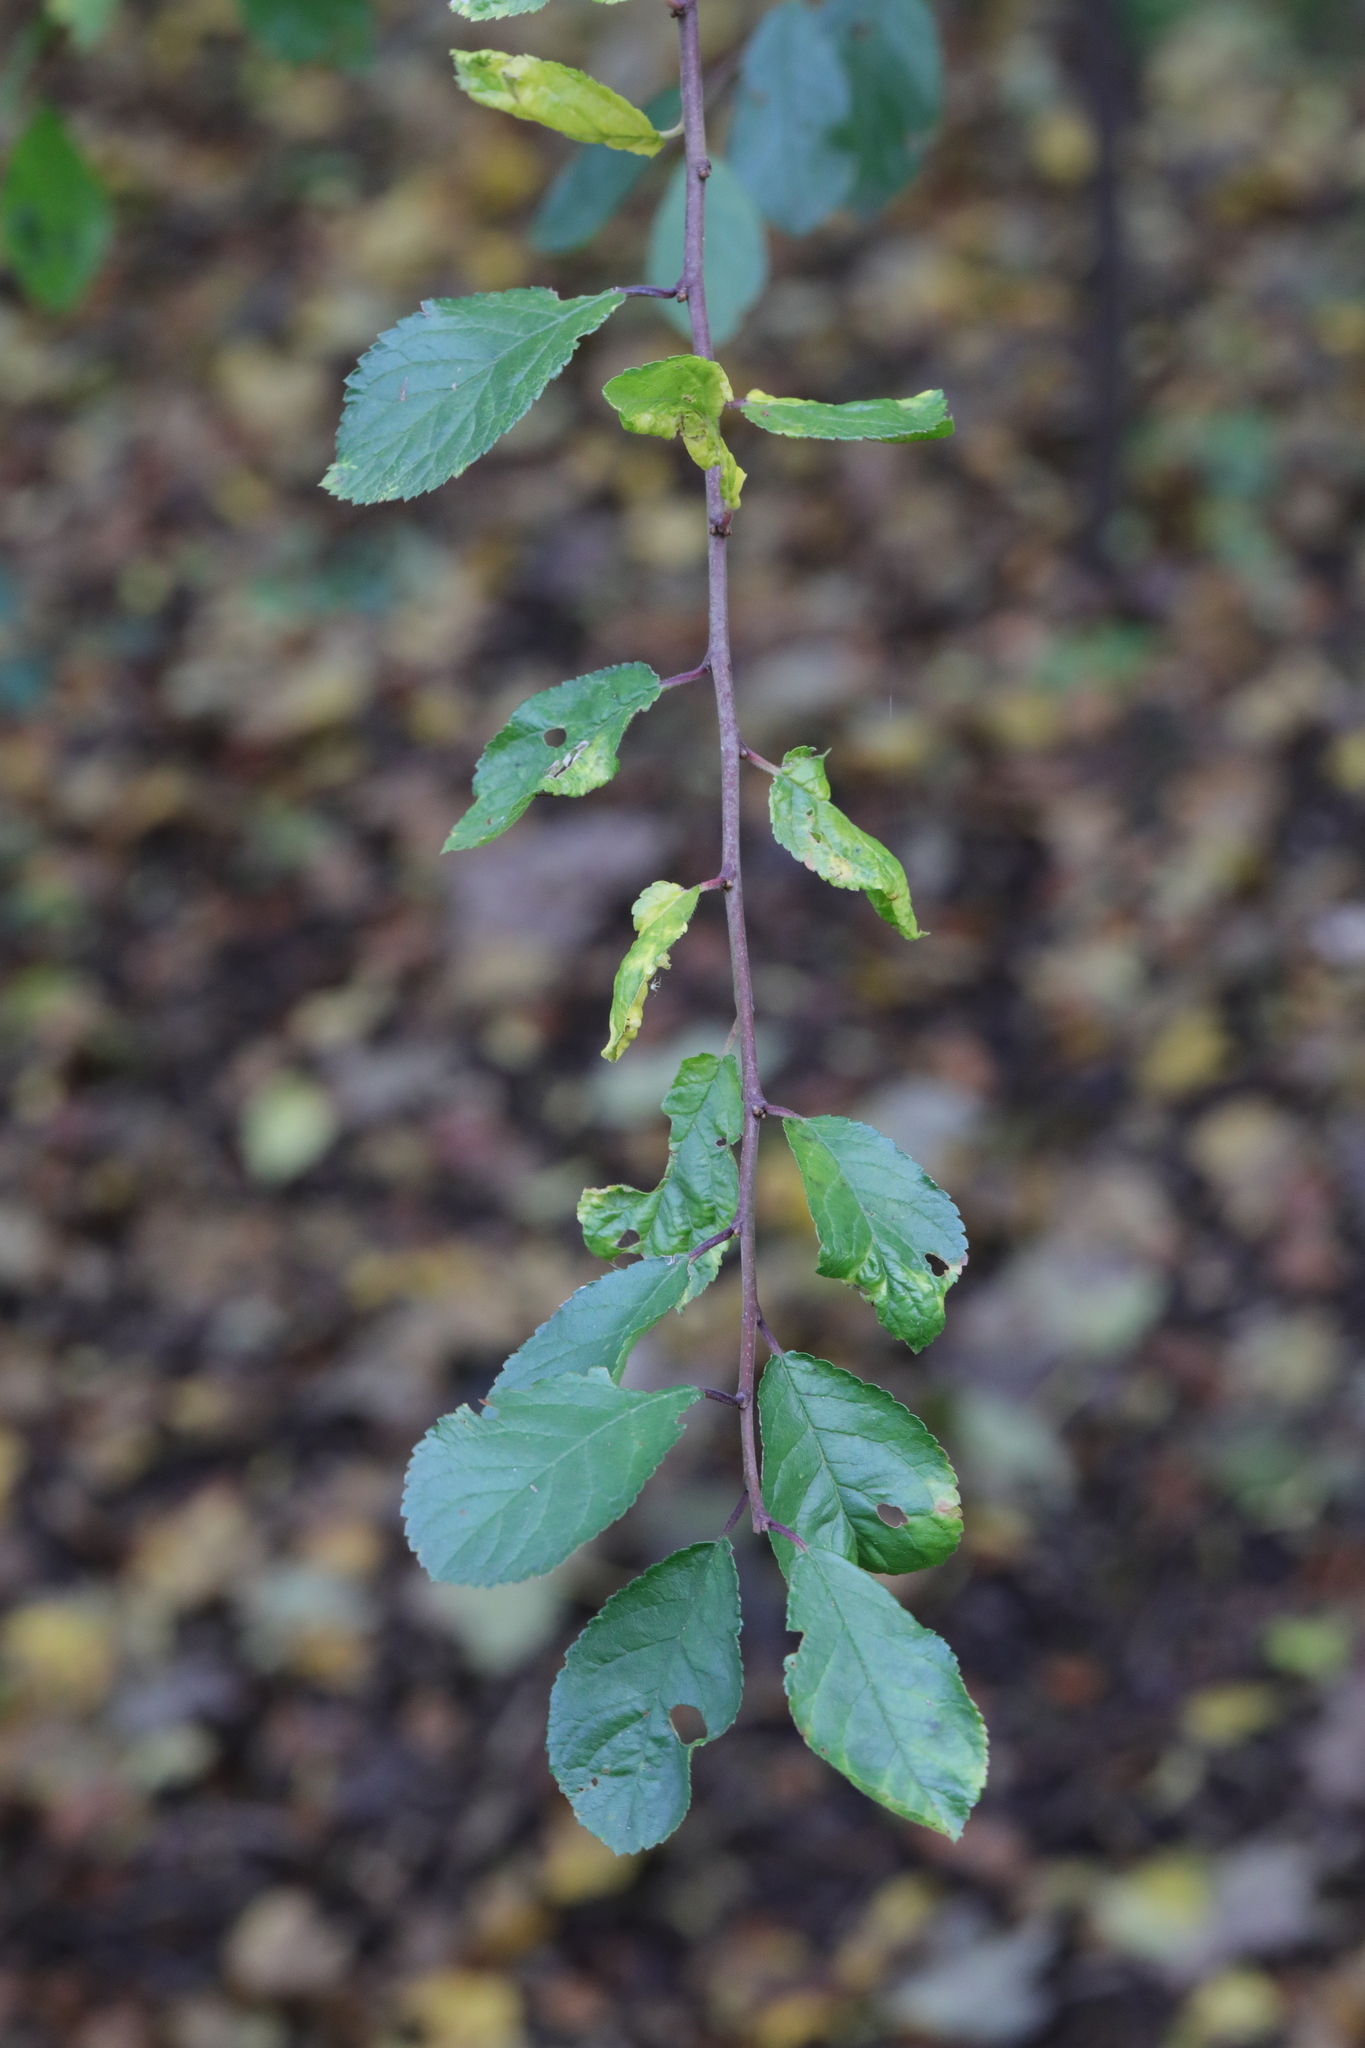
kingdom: Plantae
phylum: Tracheophyta
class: Magnoliopsida
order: Rosales
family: Rosaceae
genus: Prunus
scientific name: Prunus spinosa
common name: Blackthorn
